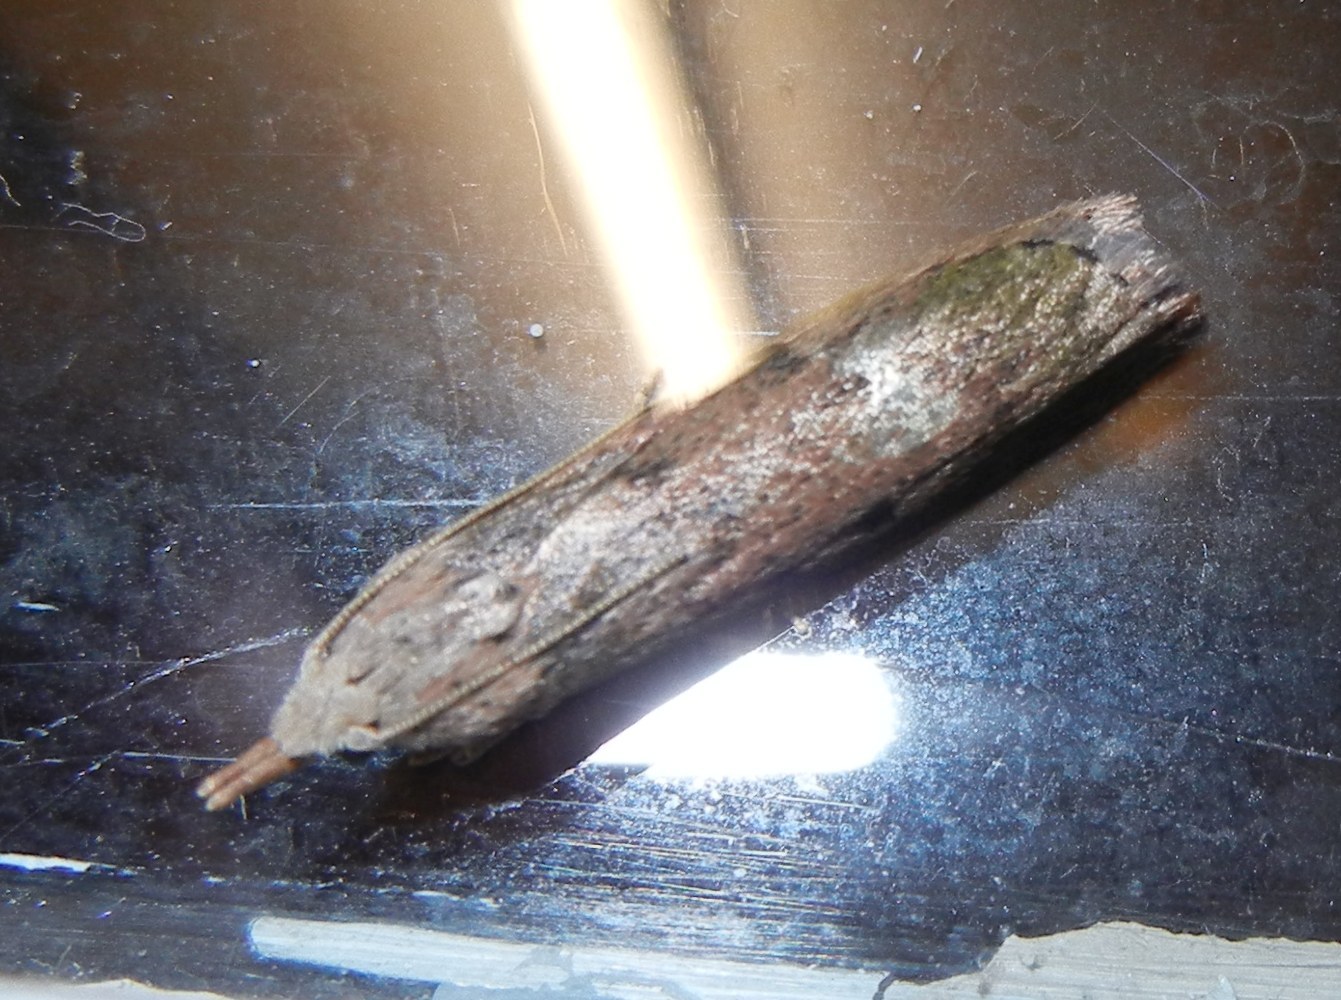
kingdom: Animalia
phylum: Arthropoda
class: Insecta
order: Lepidoptera
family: Pyralidae
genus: Aphomia
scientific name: Aphomia sociella
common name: Bee moth
